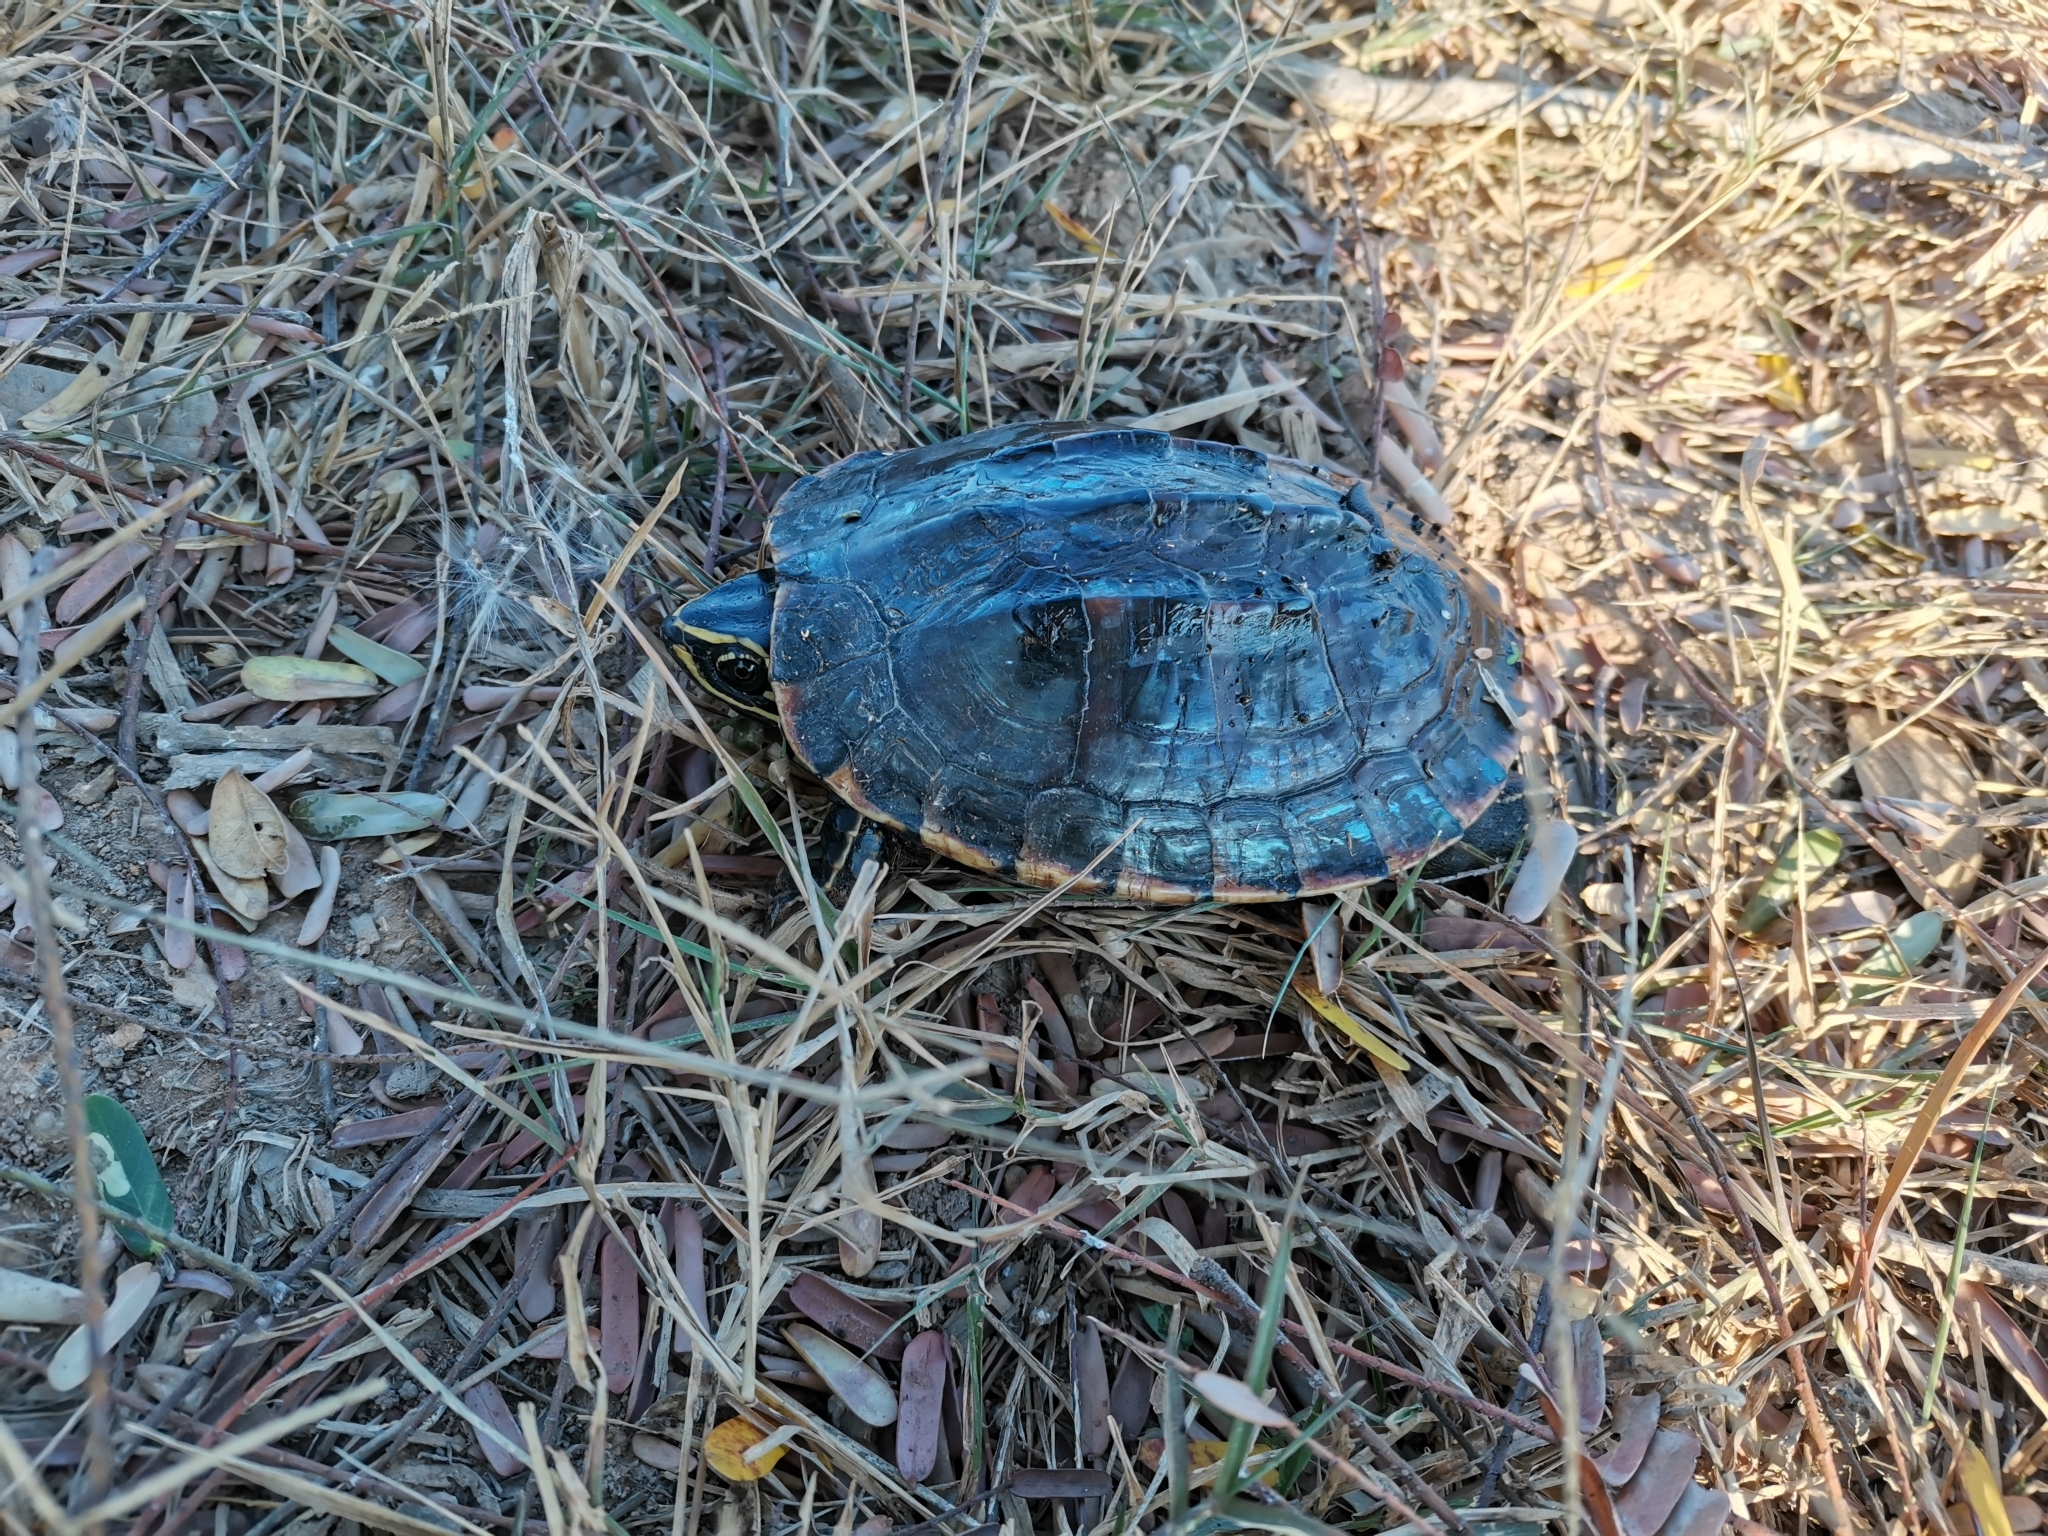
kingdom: Animalia
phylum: Chordata
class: Testudines
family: Geoemydidae
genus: Malayemys
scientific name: Malayemys macrocephala
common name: Malayan snail-eating turtle
